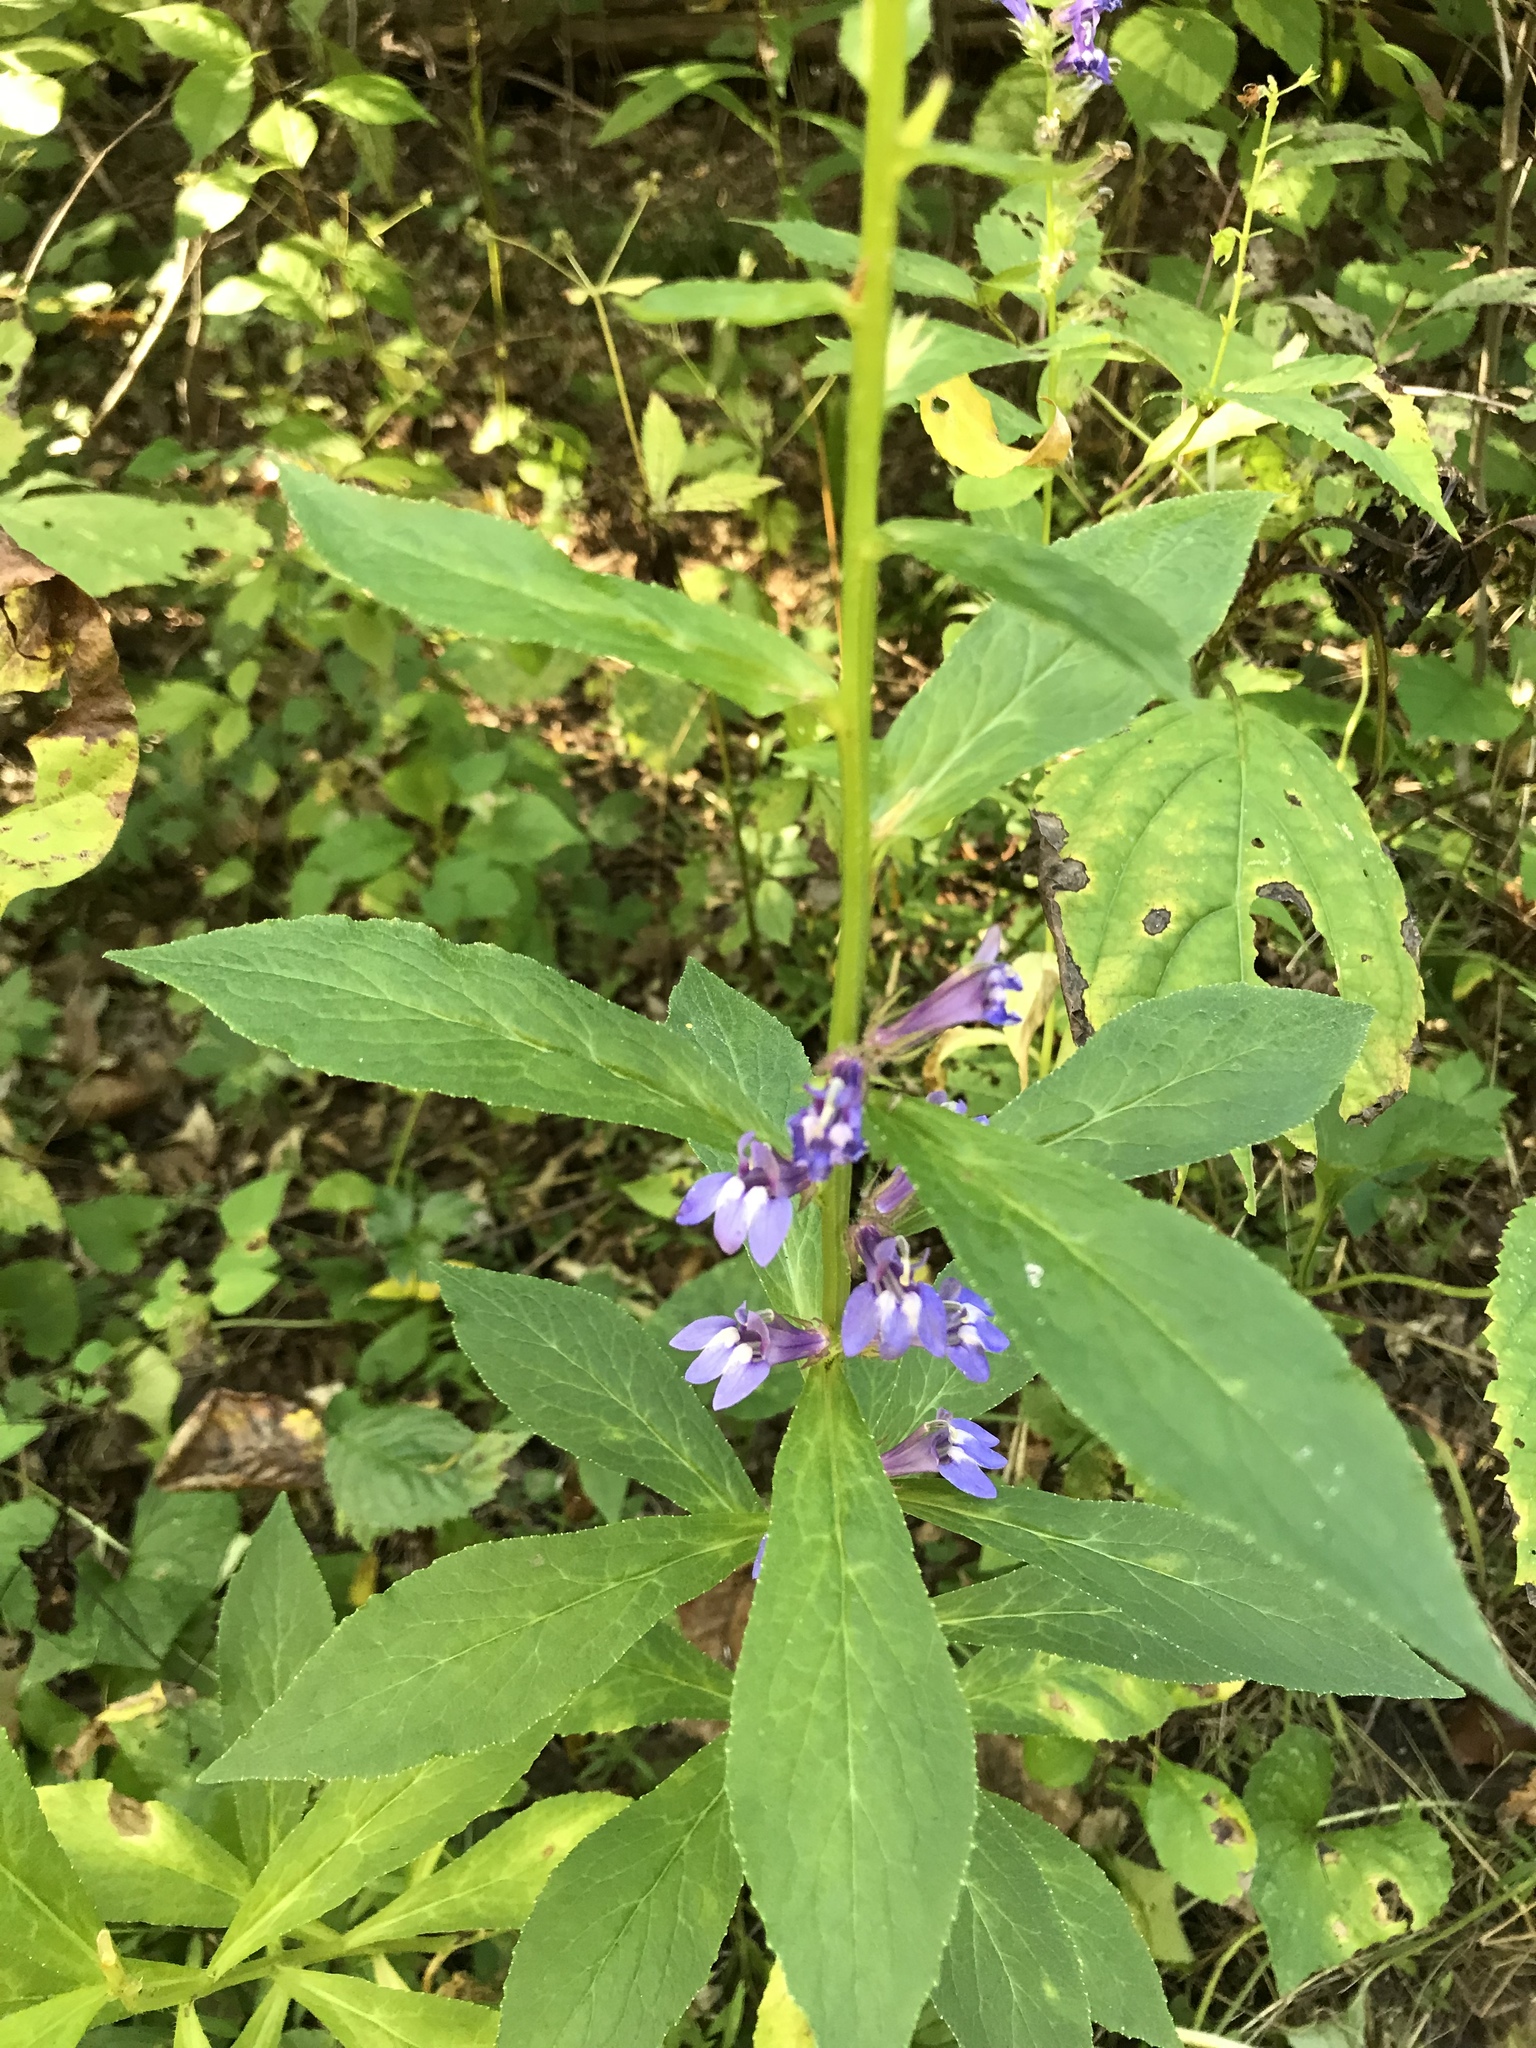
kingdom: Plantae
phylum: Tracheophyta
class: Magnoliopsida
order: Asterales
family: Campanulaceae
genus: Lobelia
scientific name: Lobelia siphilitica
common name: Great lobelia
